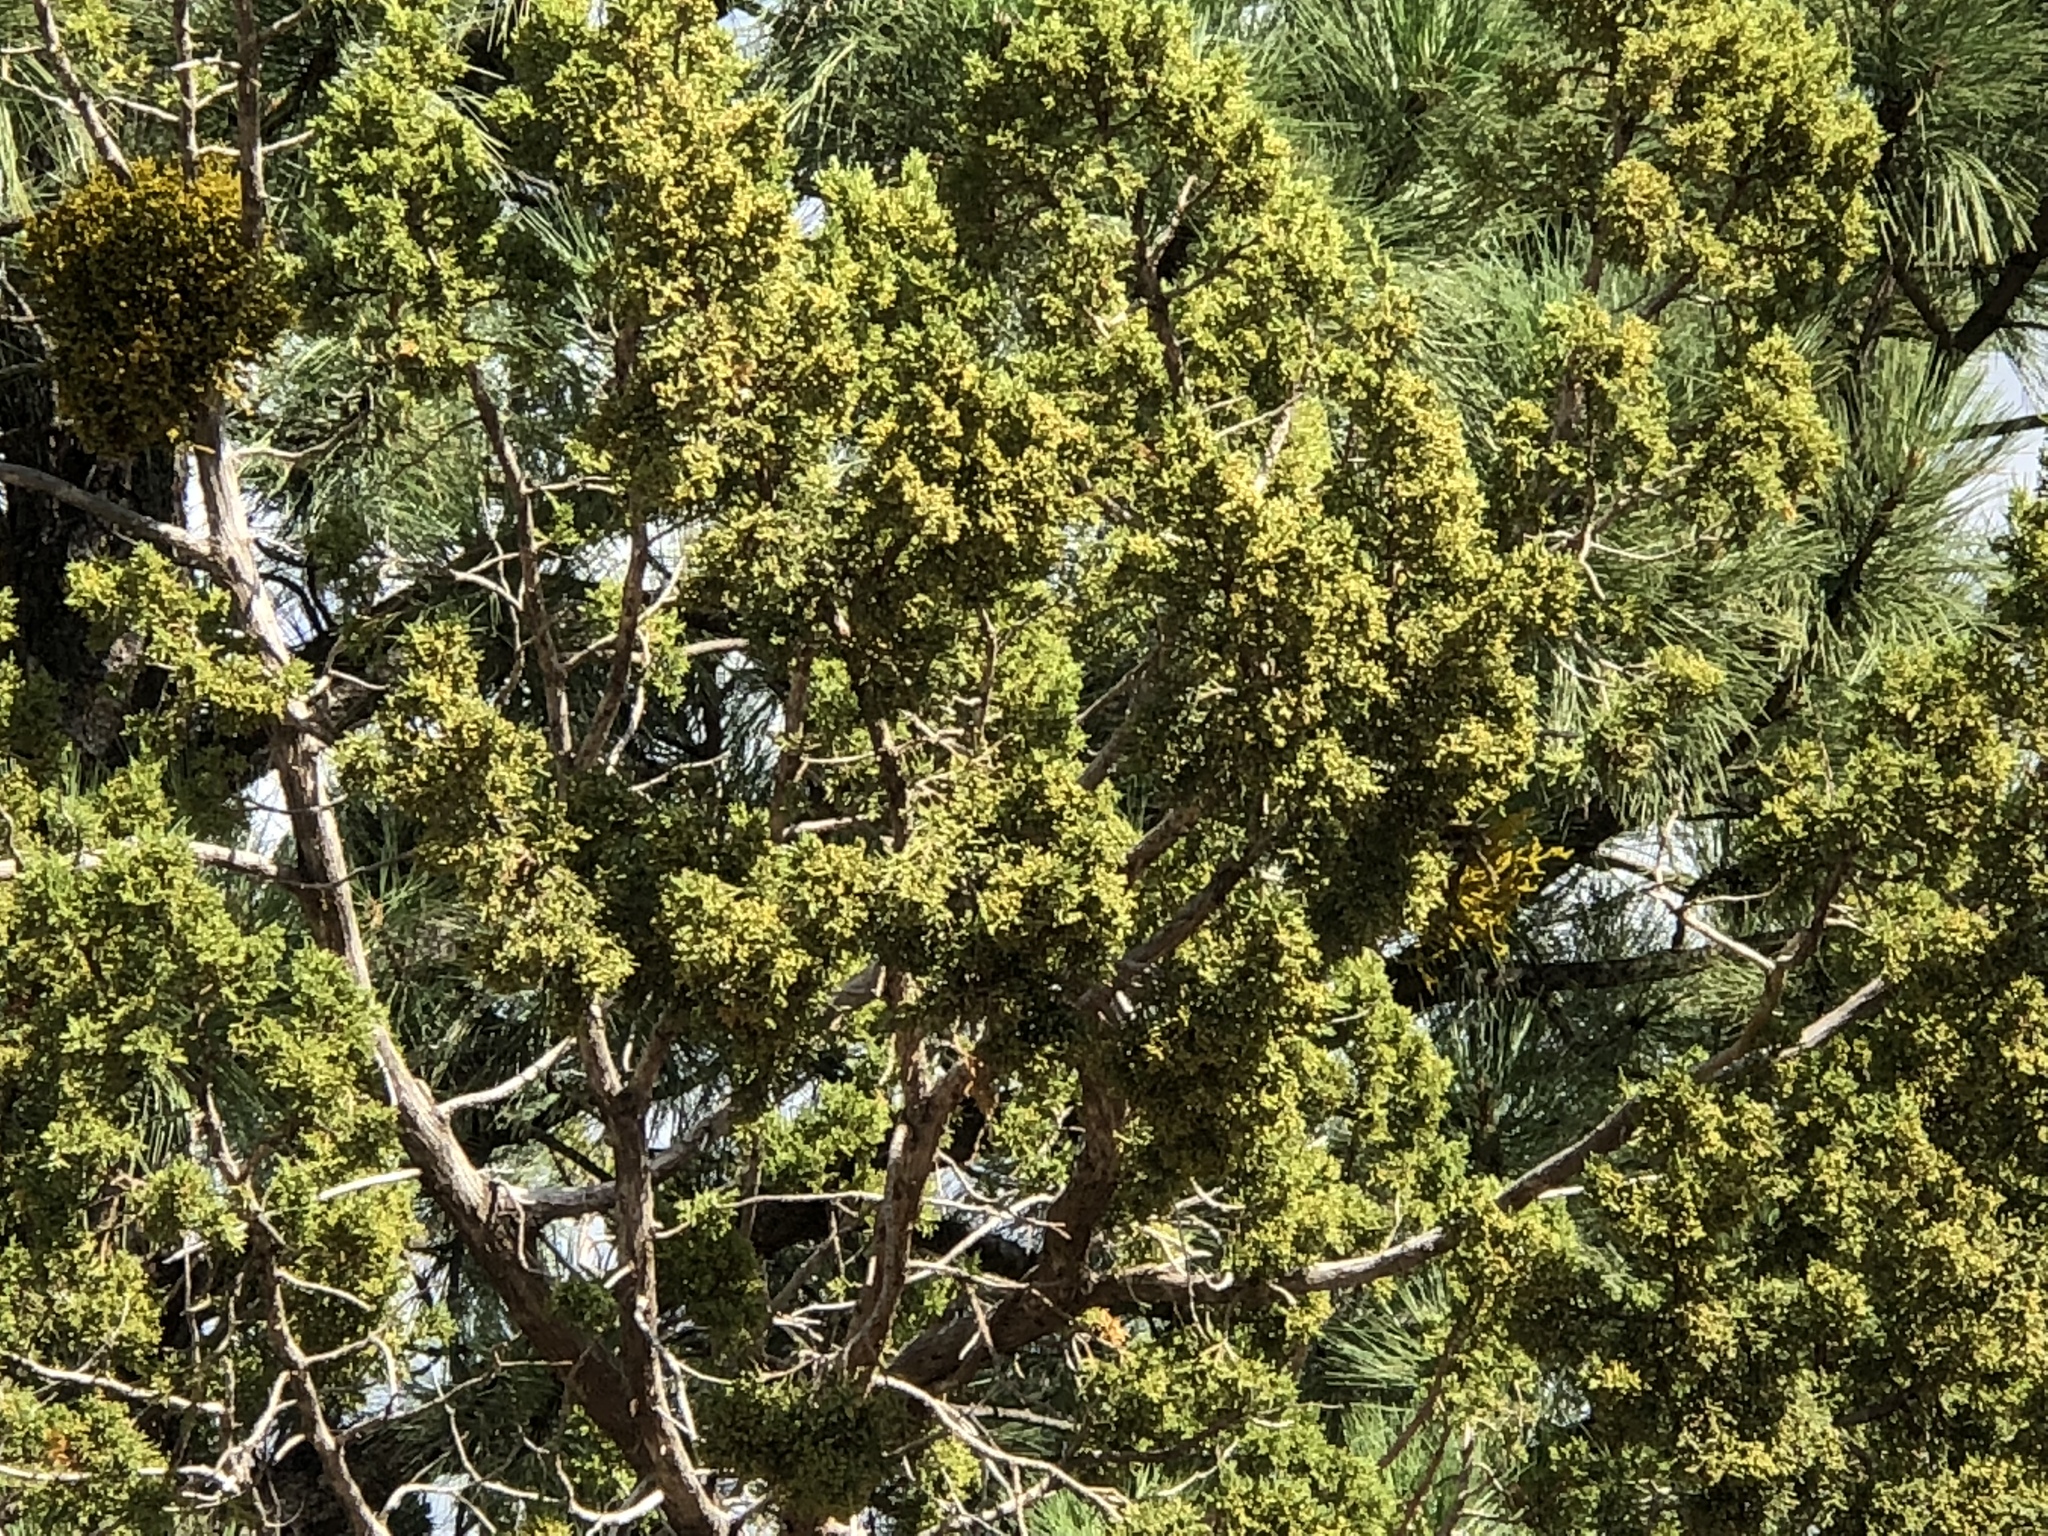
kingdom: Plantae
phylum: Tracheophyta
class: Pinopsida
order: Pinales
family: Cupressaceae
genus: Juniperus
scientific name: Juniperus monosperma
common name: One-seed juniper
